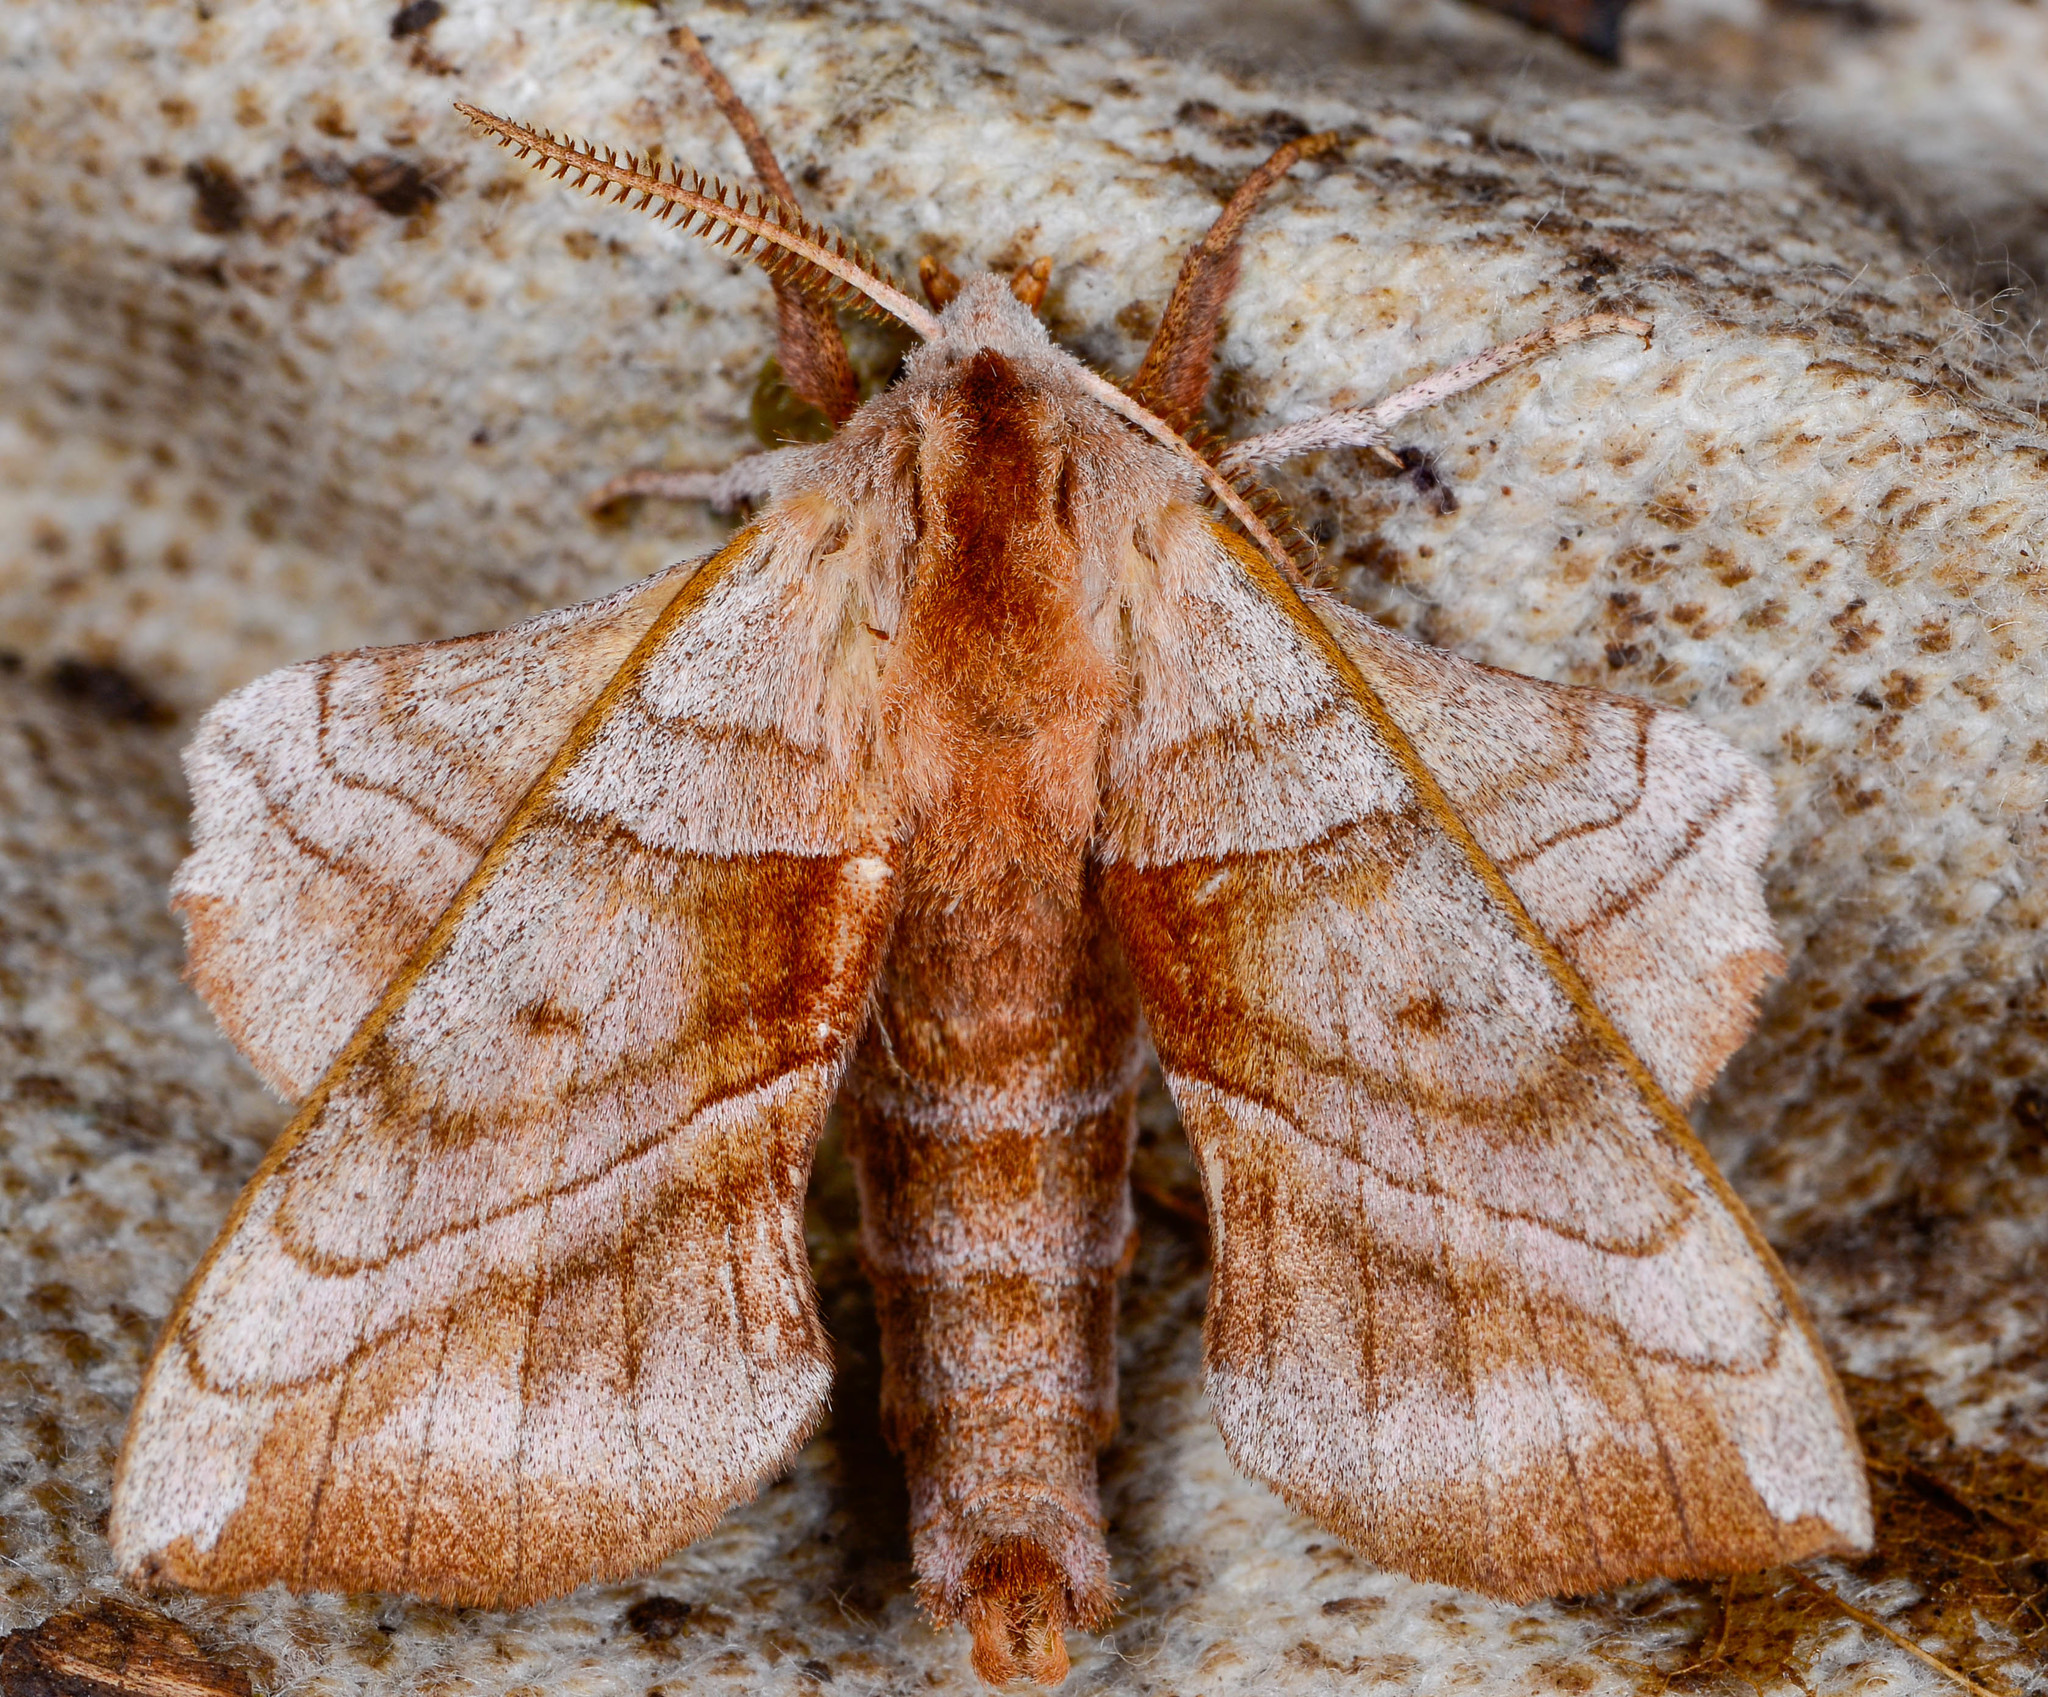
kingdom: Animalia
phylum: Arthropoda
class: Insecta
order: Lepidoptera
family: Sphingidae
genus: Amorpha
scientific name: Amorpha juglandis
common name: Walnut sphinx
